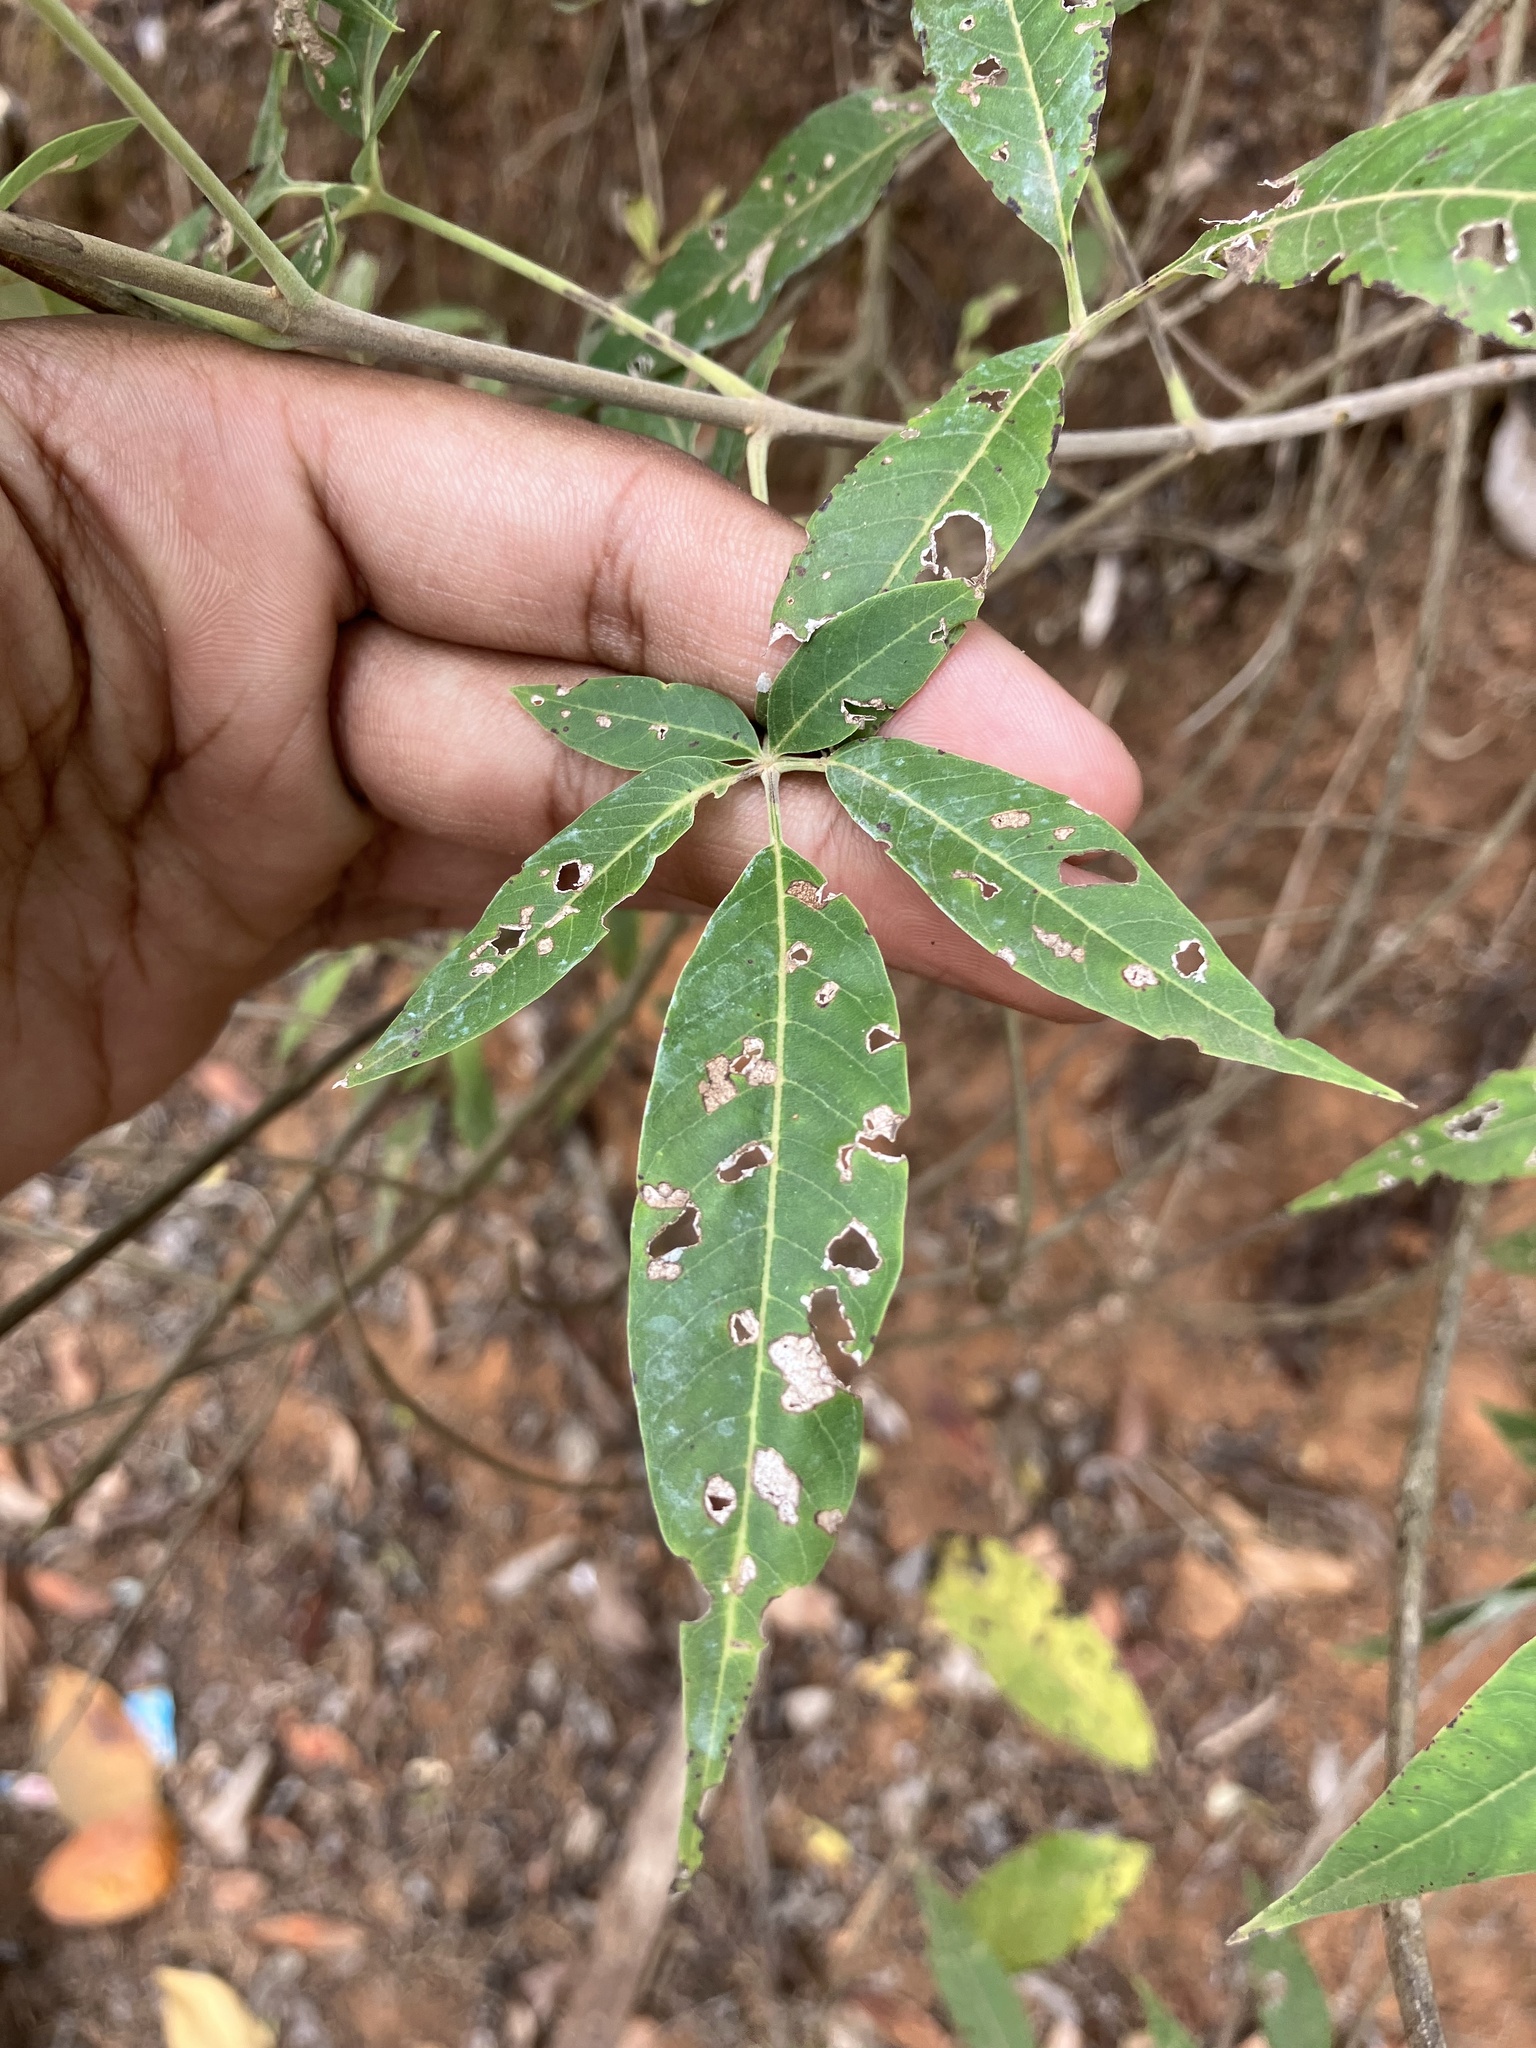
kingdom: Plantae
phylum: Tracheophyta
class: Magnoliopsida
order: Lamiales
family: Lamiaceae
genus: Vitex
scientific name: Vitex negundo
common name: Chinese chastetree
